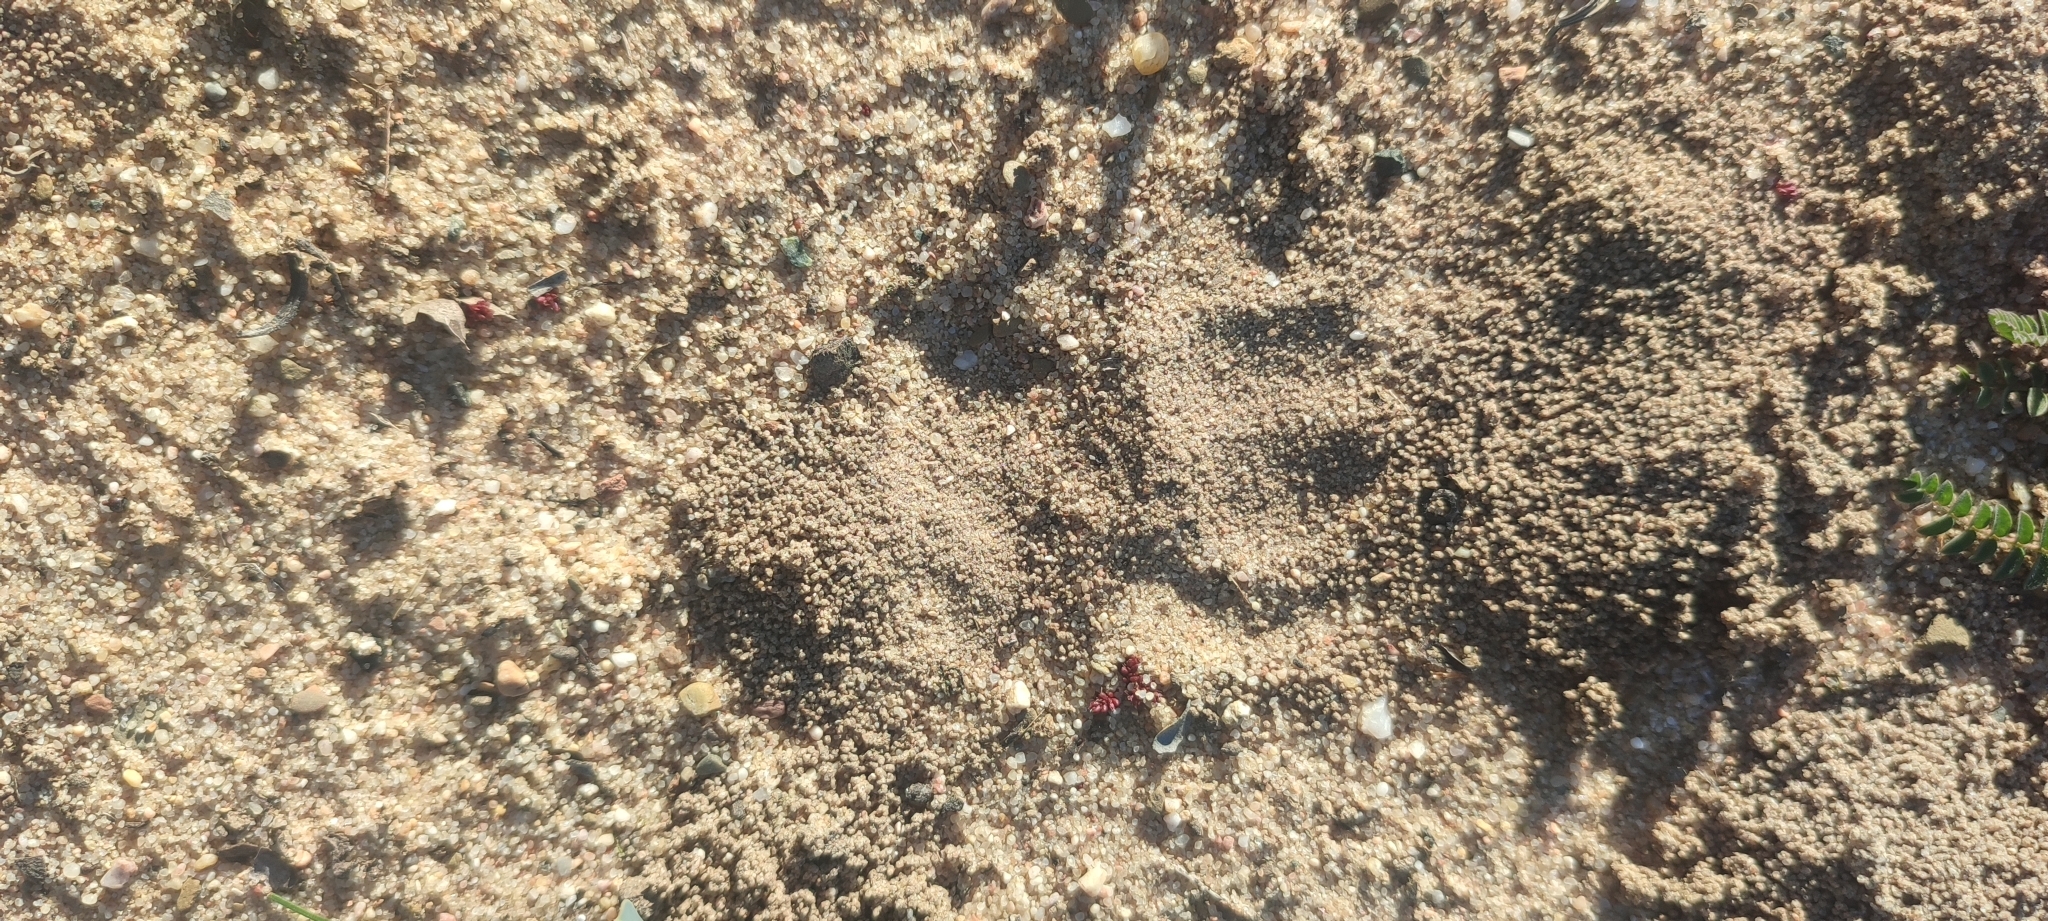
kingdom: Animalia
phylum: Chordata
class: Mammalia
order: Carnivora
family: Felidae
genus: Lynx
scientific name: Lynx pardinus
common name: Spanish lynx
